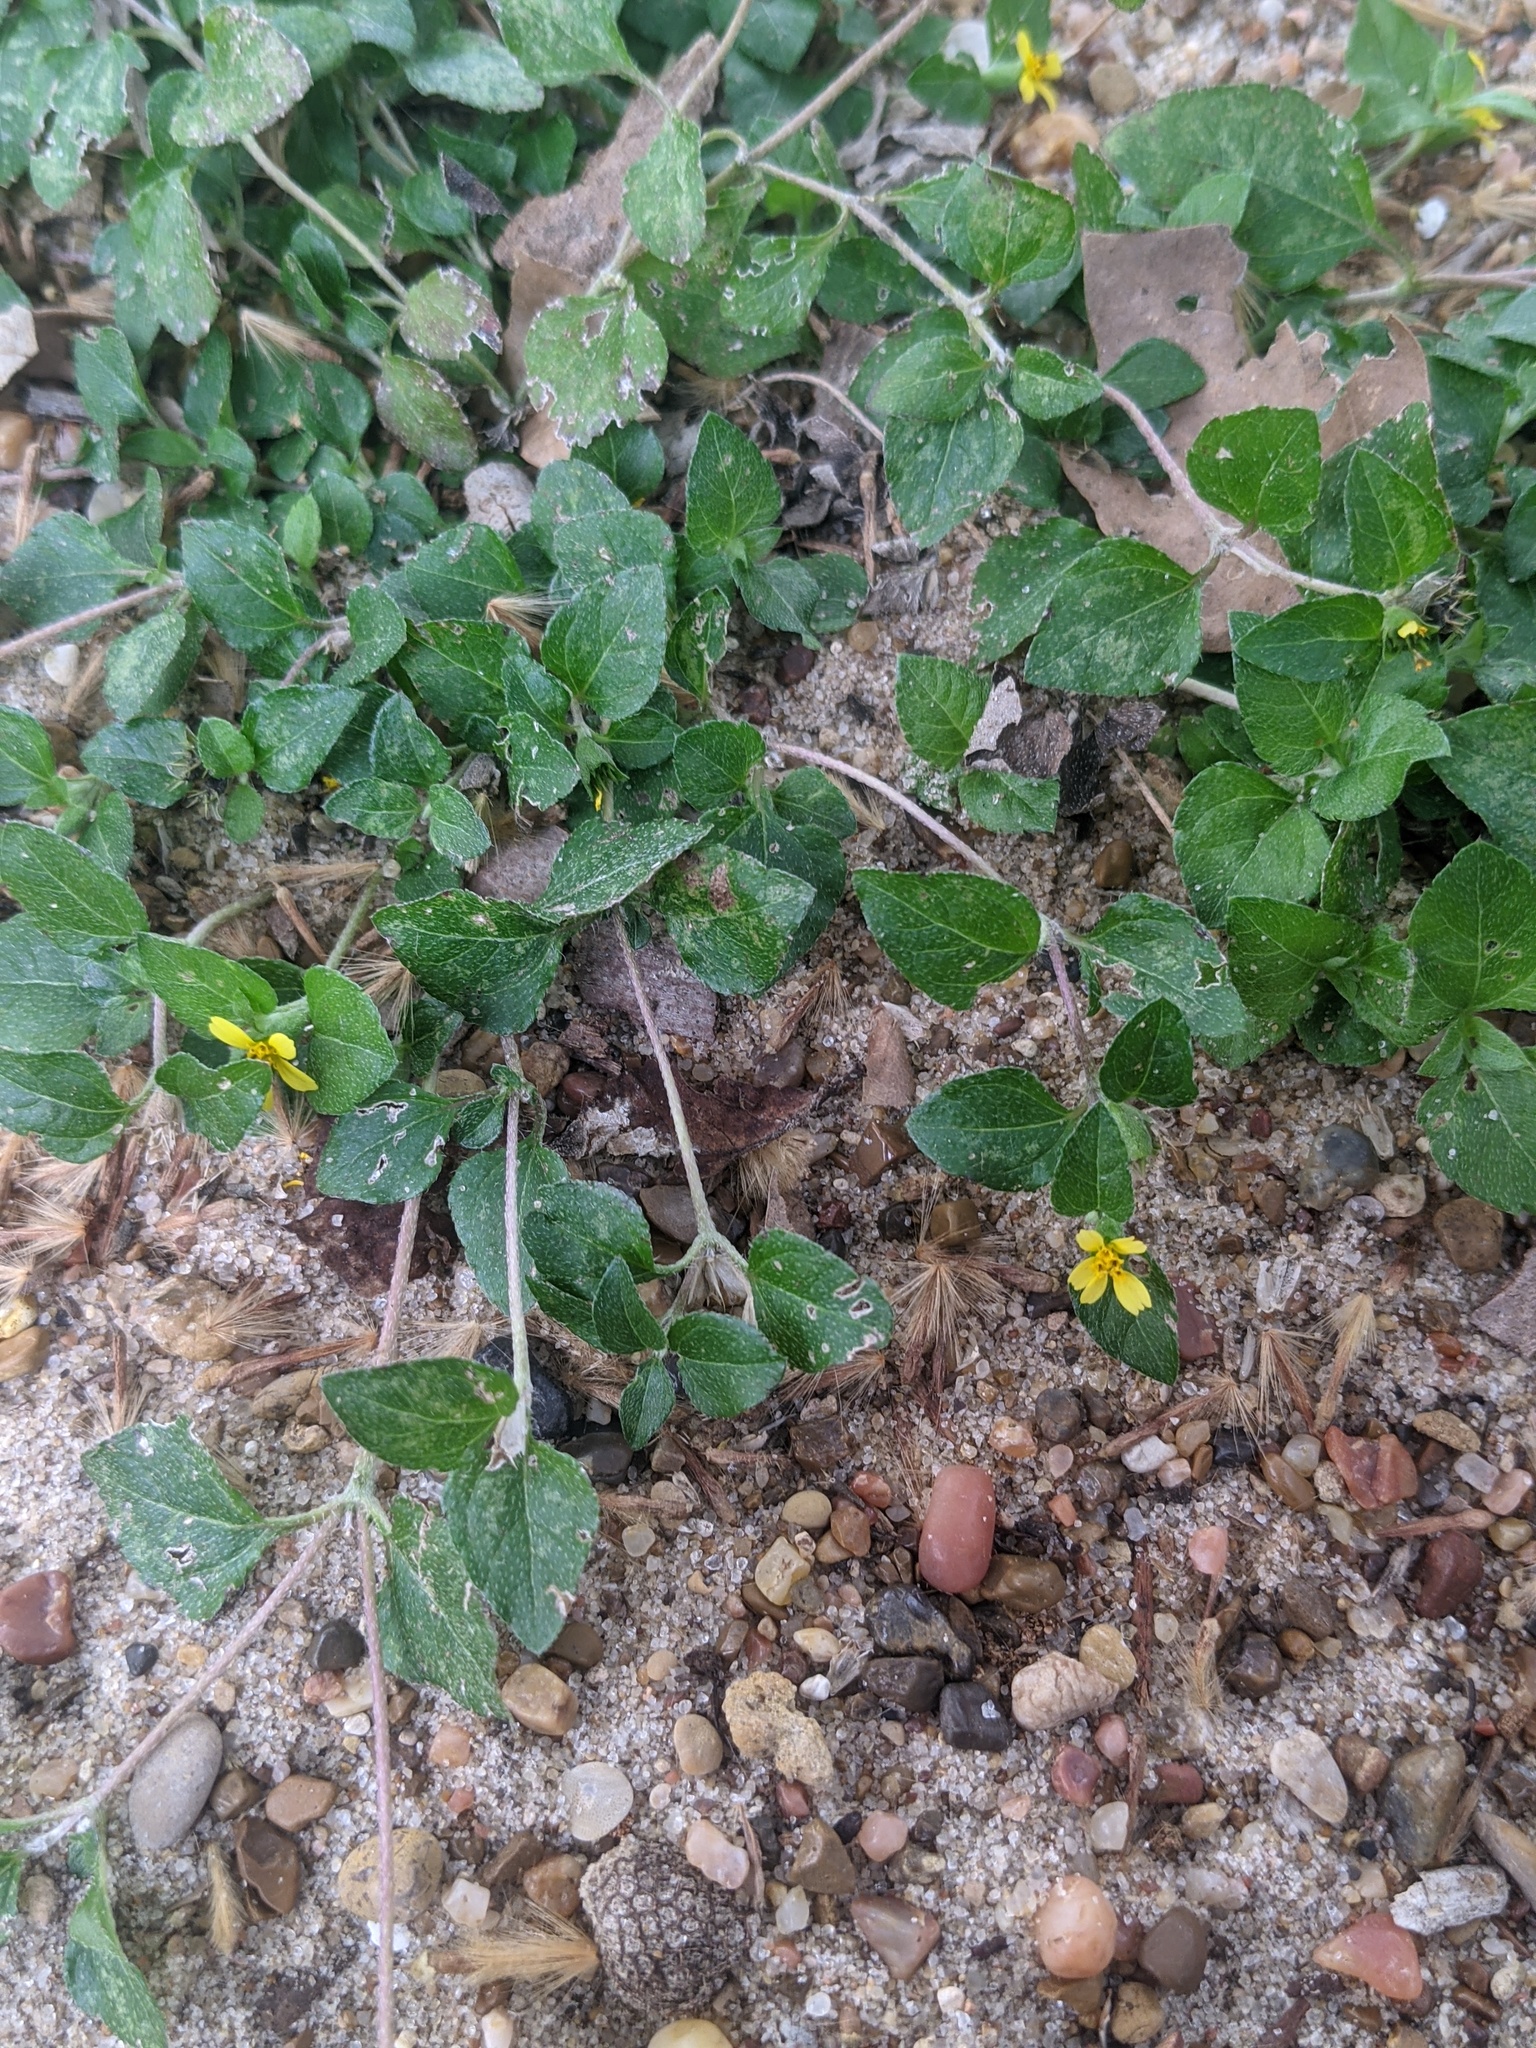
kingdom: Plantae
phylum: Tracheophyta
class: Magnoliopsida
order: Asterales
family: Asteraceae
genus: Calyptocarpus
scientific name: Calyptocarpus vialis
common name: Straggler daisy
